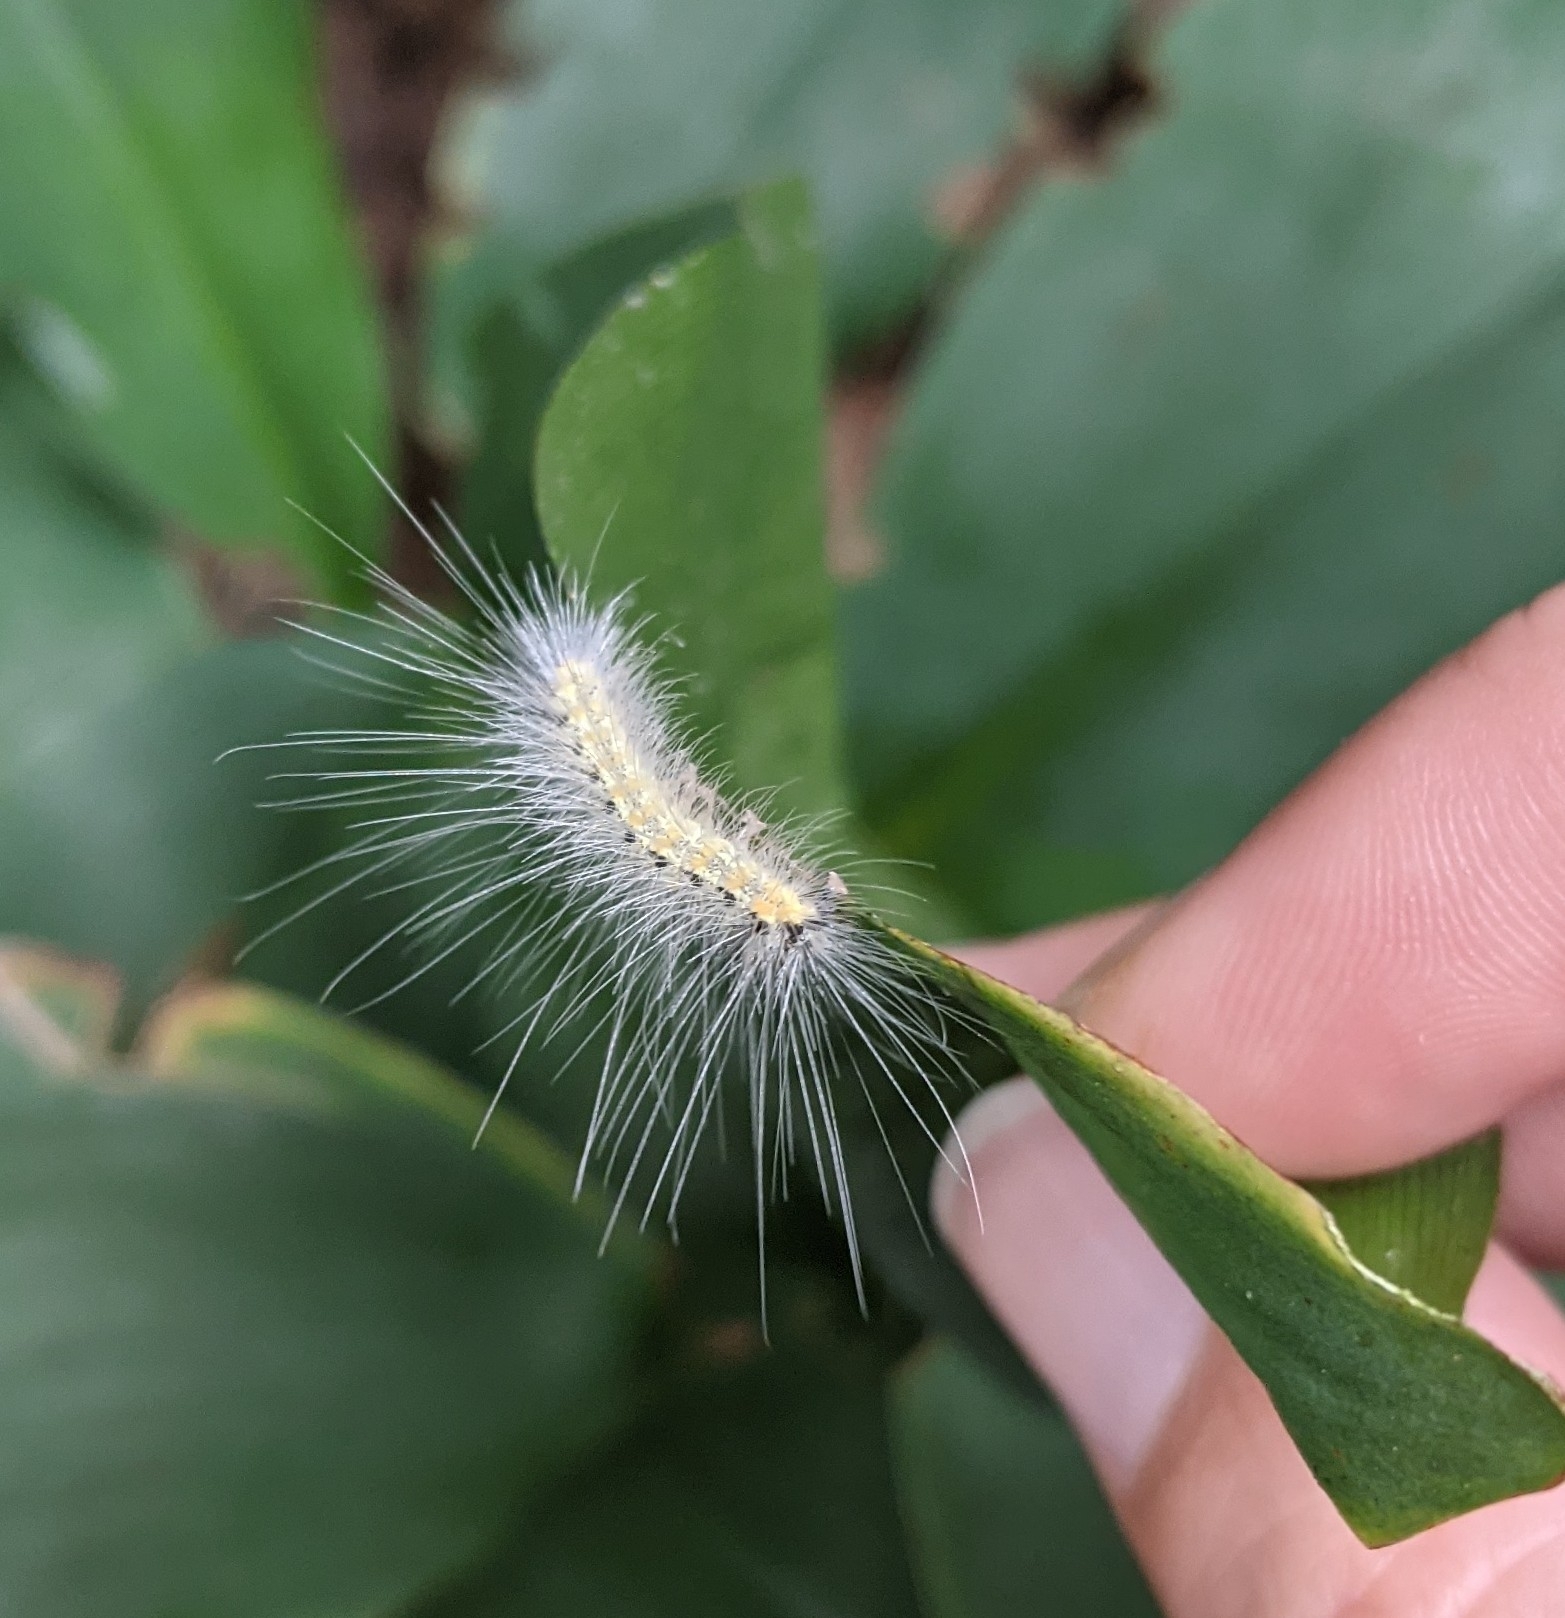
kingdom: Animalia
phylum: Arthropoda
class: Insecta
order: Lepidoptera
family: Erebidae
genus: Hyphantria
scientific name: Hyphantria cunea
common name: American white moth
